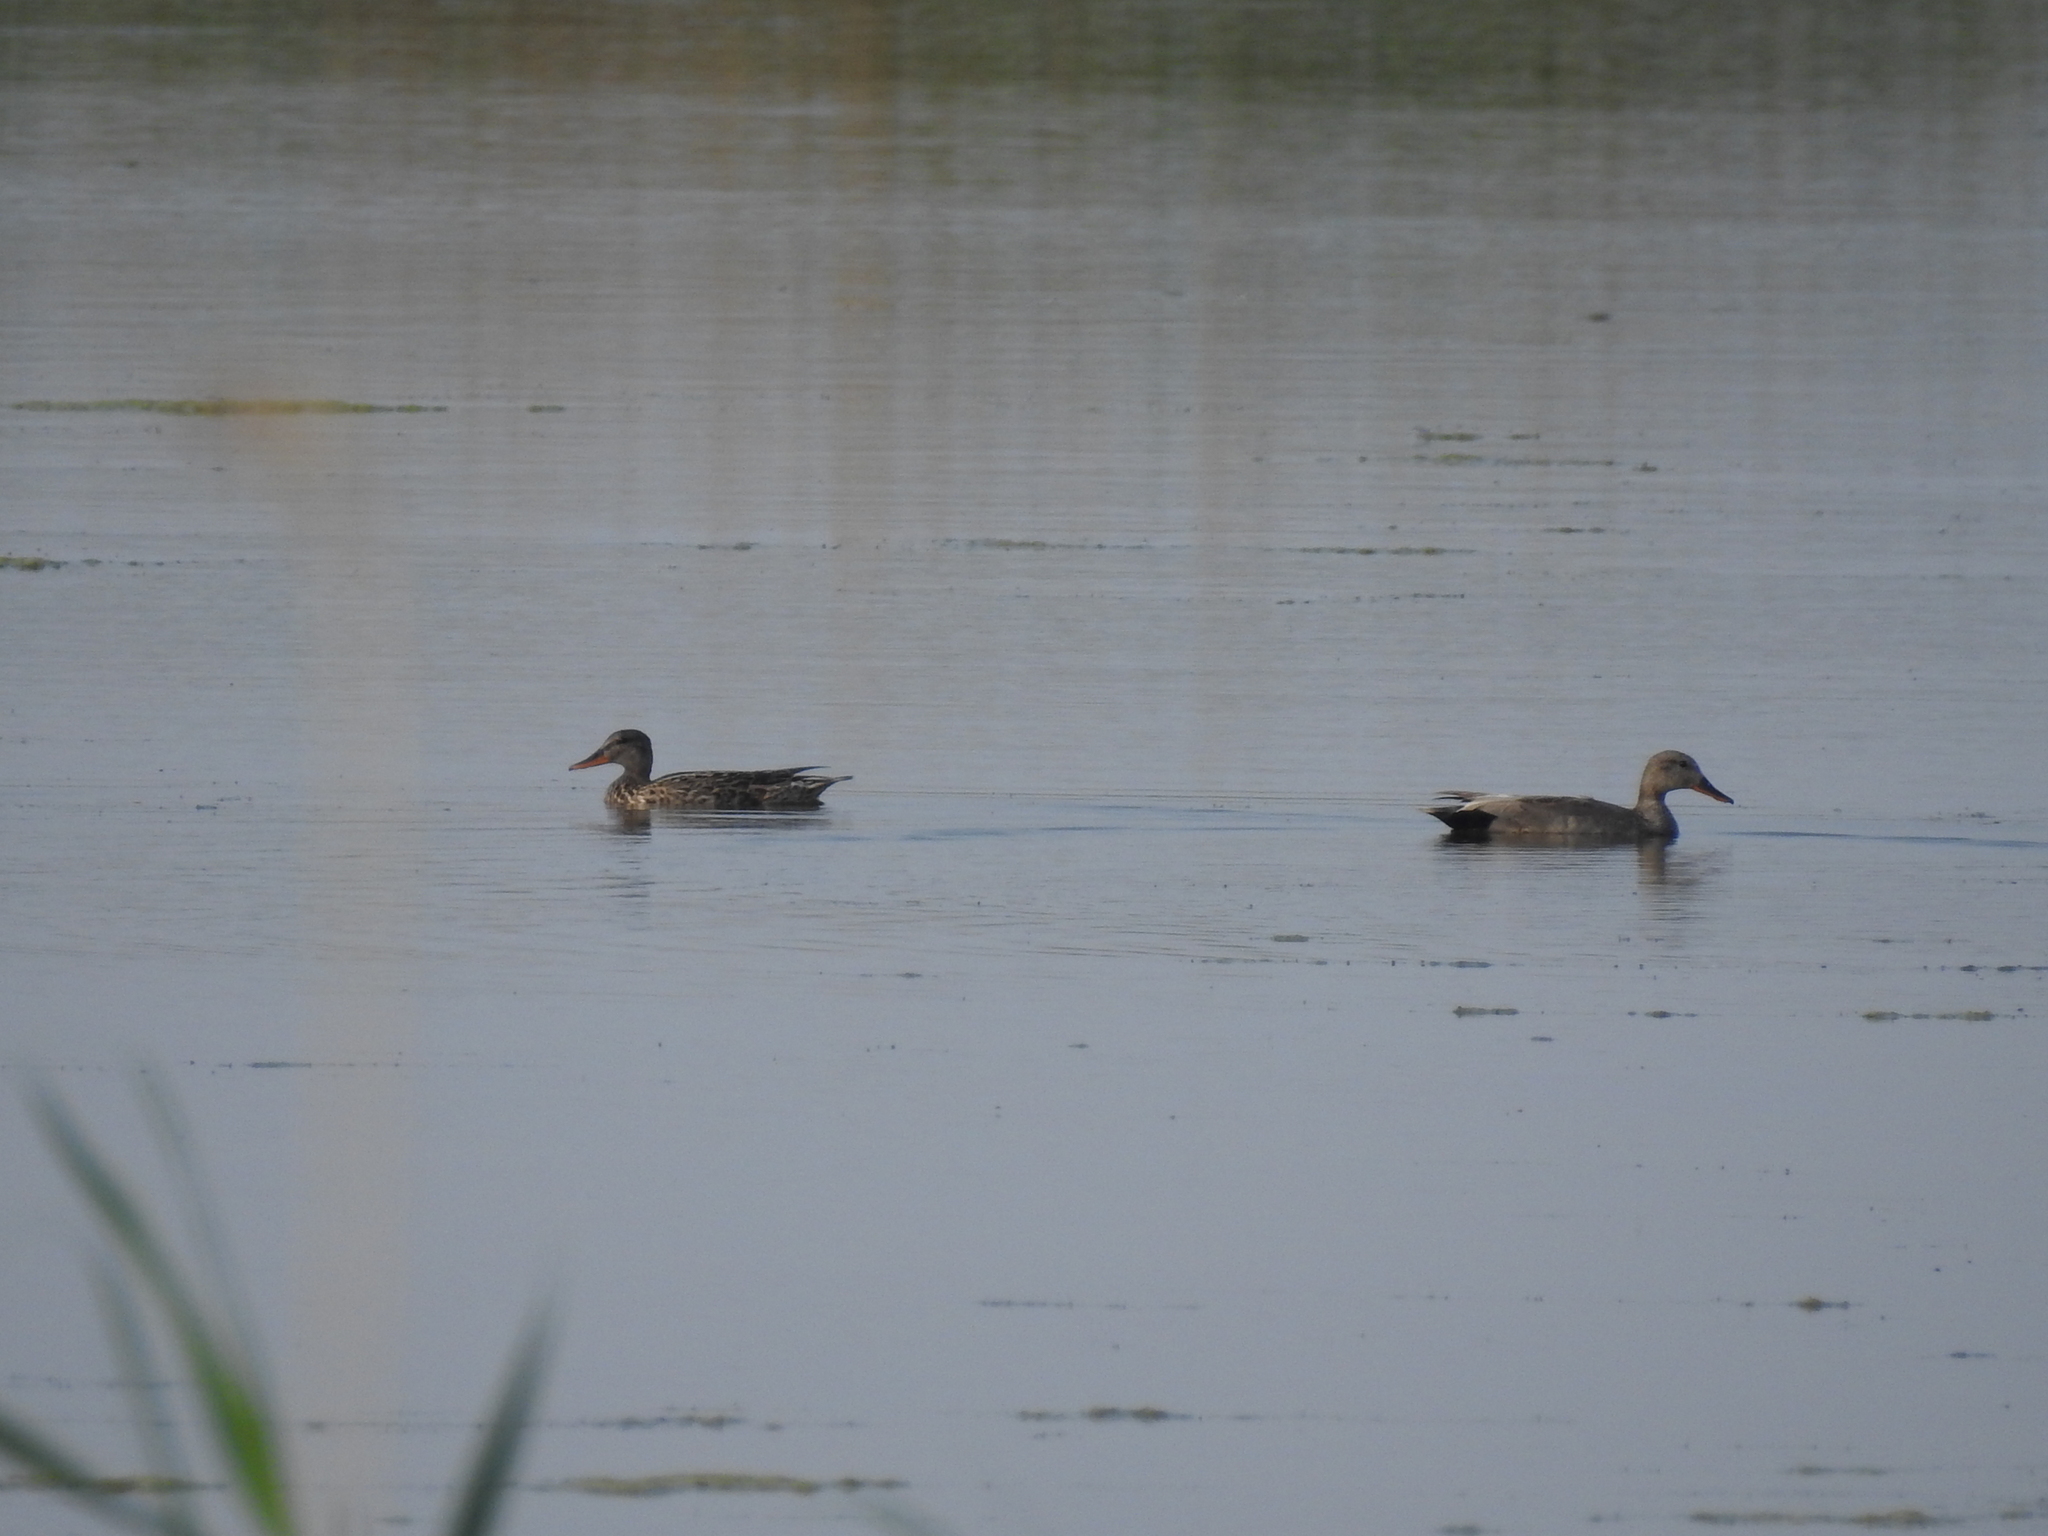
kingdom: Animalia
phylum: Chordata
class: Aves
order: Anseriformes
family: Anatidae
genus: Mareca
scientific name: Mareca strepera
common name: Gadwall
